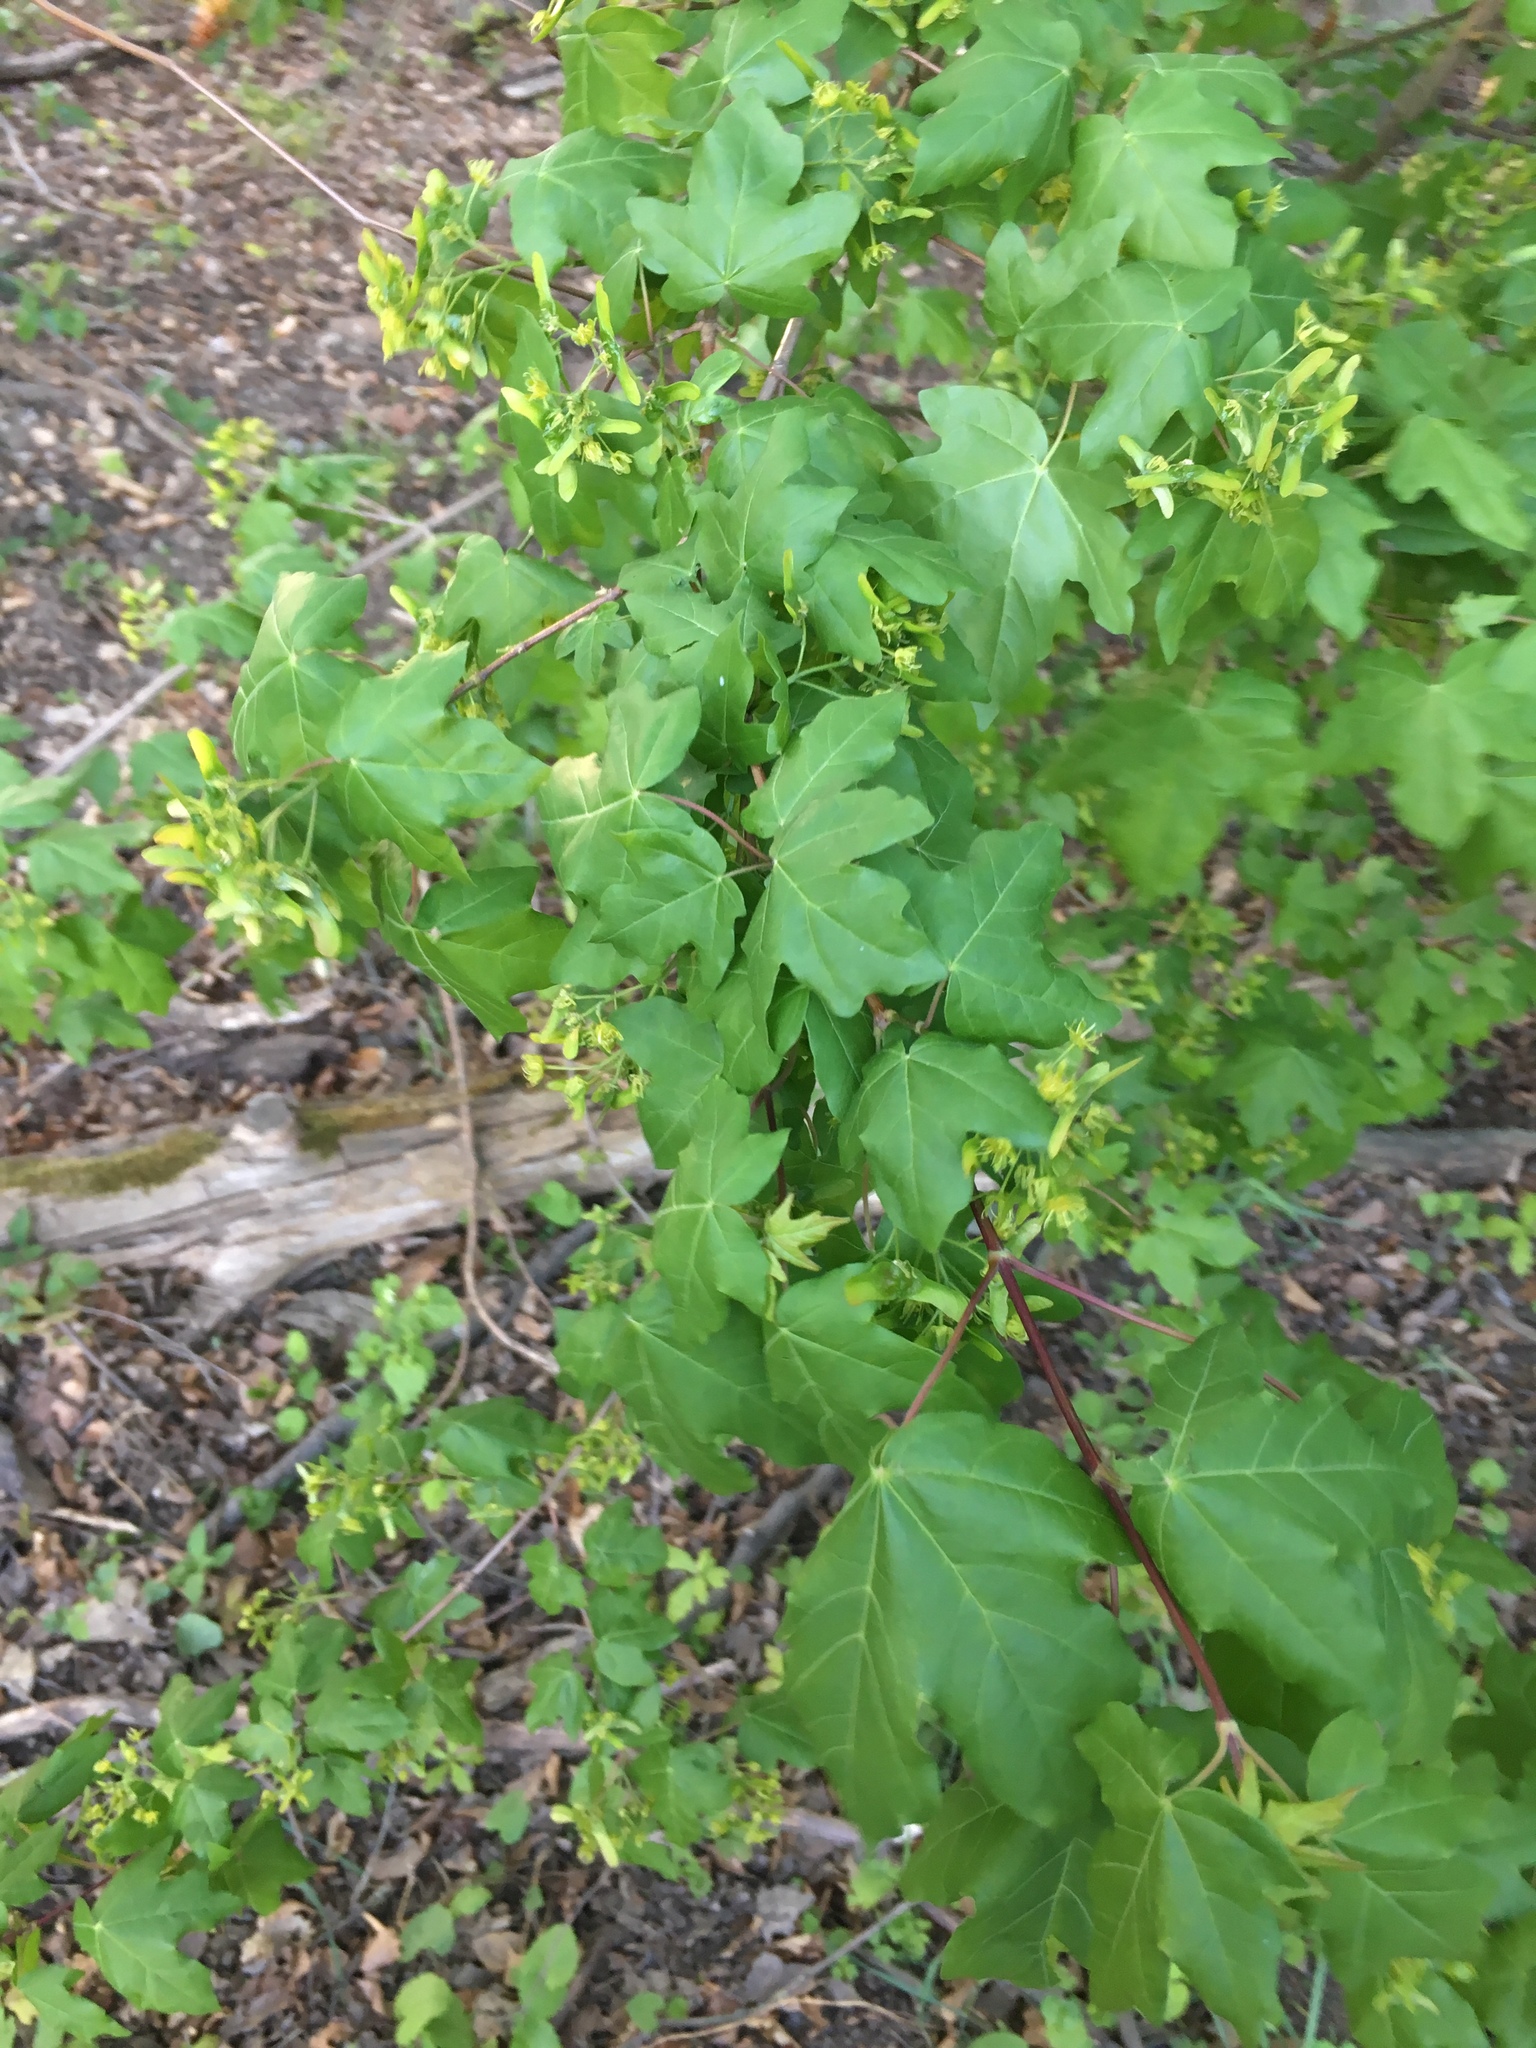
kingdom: Plantae
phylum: Tracheophyta
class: Magnoliopsida
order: Sapindales
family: Sapindaceae
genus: Acer
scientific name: Acer campestre
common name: Field maple
